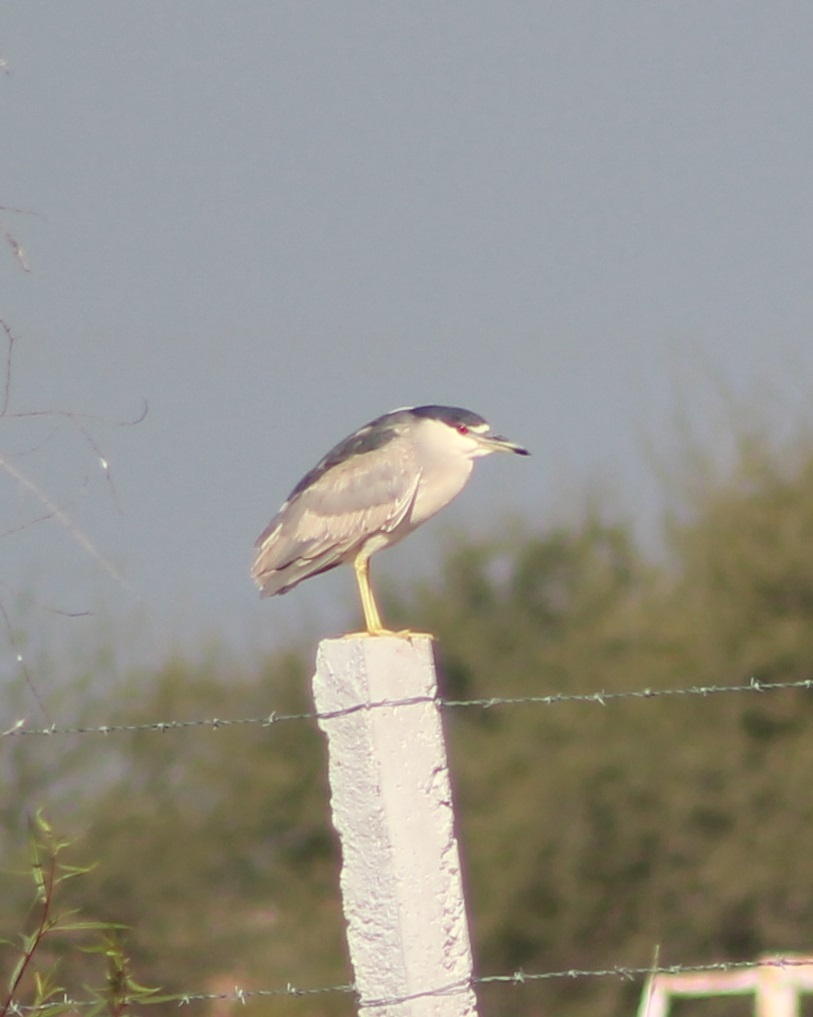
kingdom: Animalia
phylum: Chordata
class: Aves
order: Pelecaniformes
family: Ardeidae
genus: Nycticorax
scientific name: Nycticorax nycticorax
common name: Black-crowned night heron
